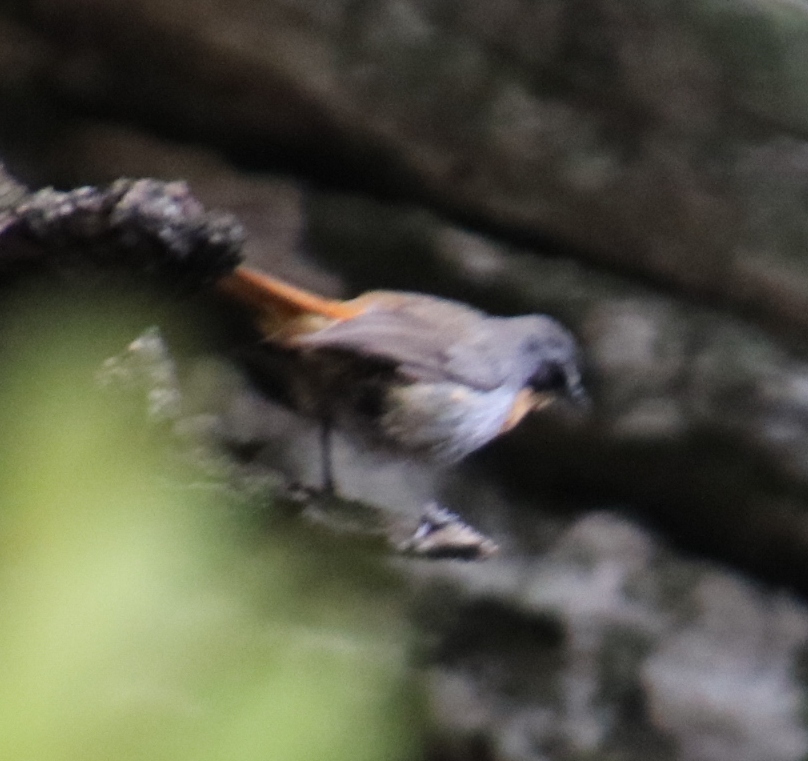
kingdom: Animalia
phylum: Chordata
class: Aves
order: Passeriformes
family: Muscicapidae
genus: Cossypha
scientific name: Cossypha caffra
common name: Cape robin-chat
